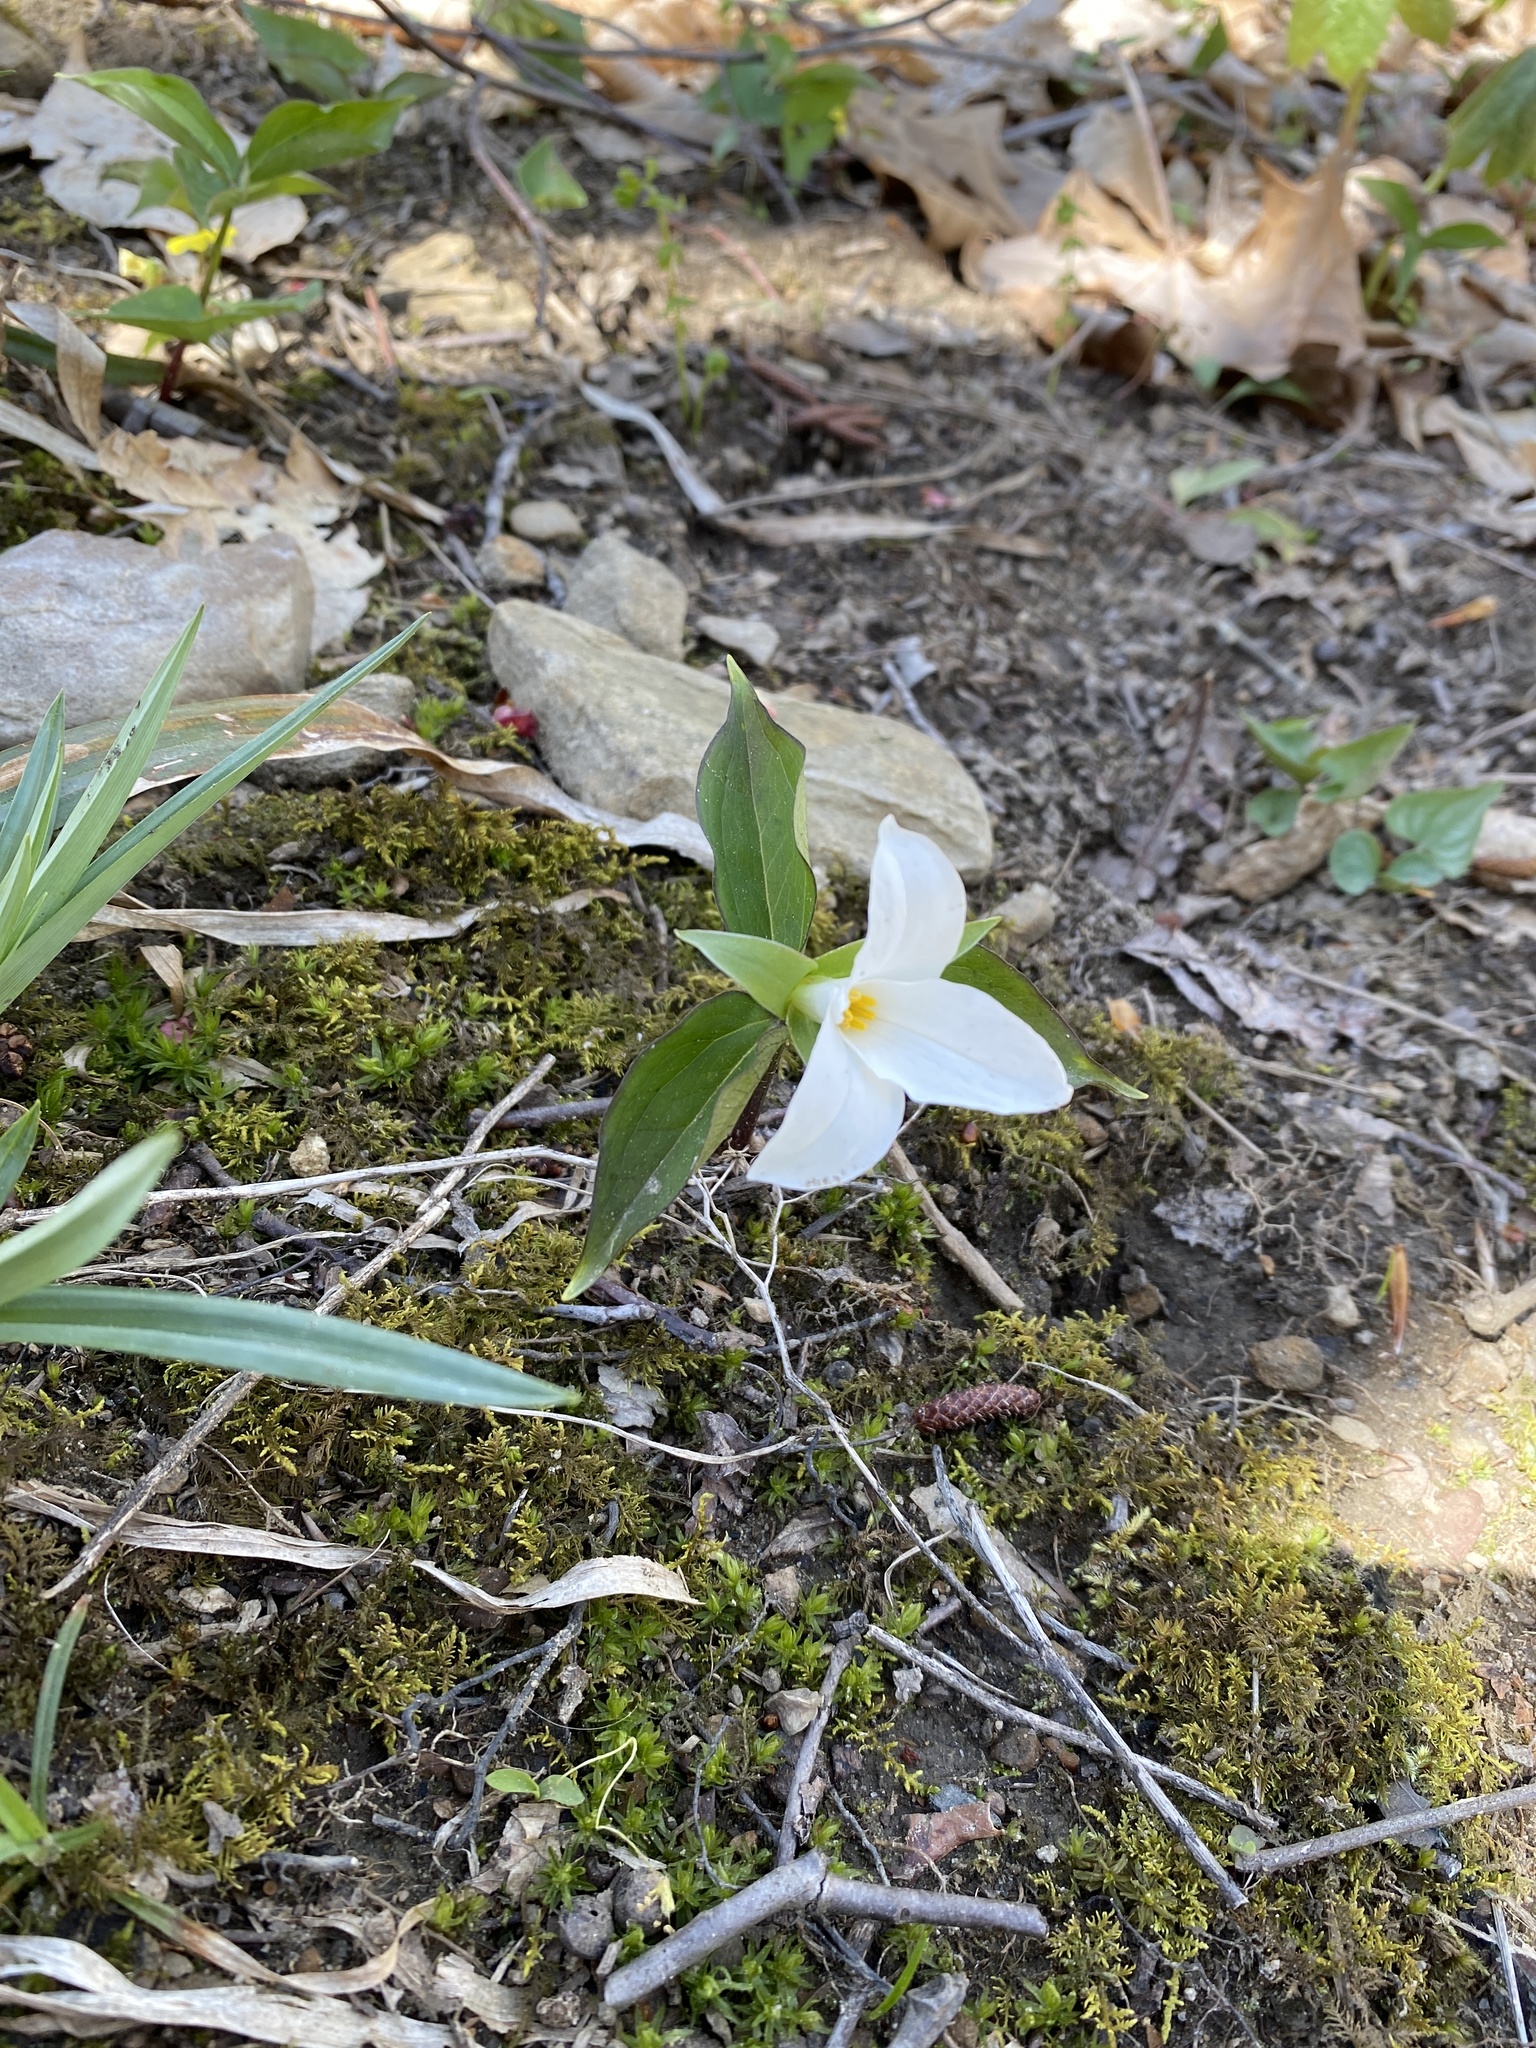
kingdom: Plantae
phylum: Tracheophyta
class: Liliopsida
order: Liliales
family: Melanthiaceae
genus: Trillium
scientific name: Trillium grandiflorum
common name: Great white trillium
